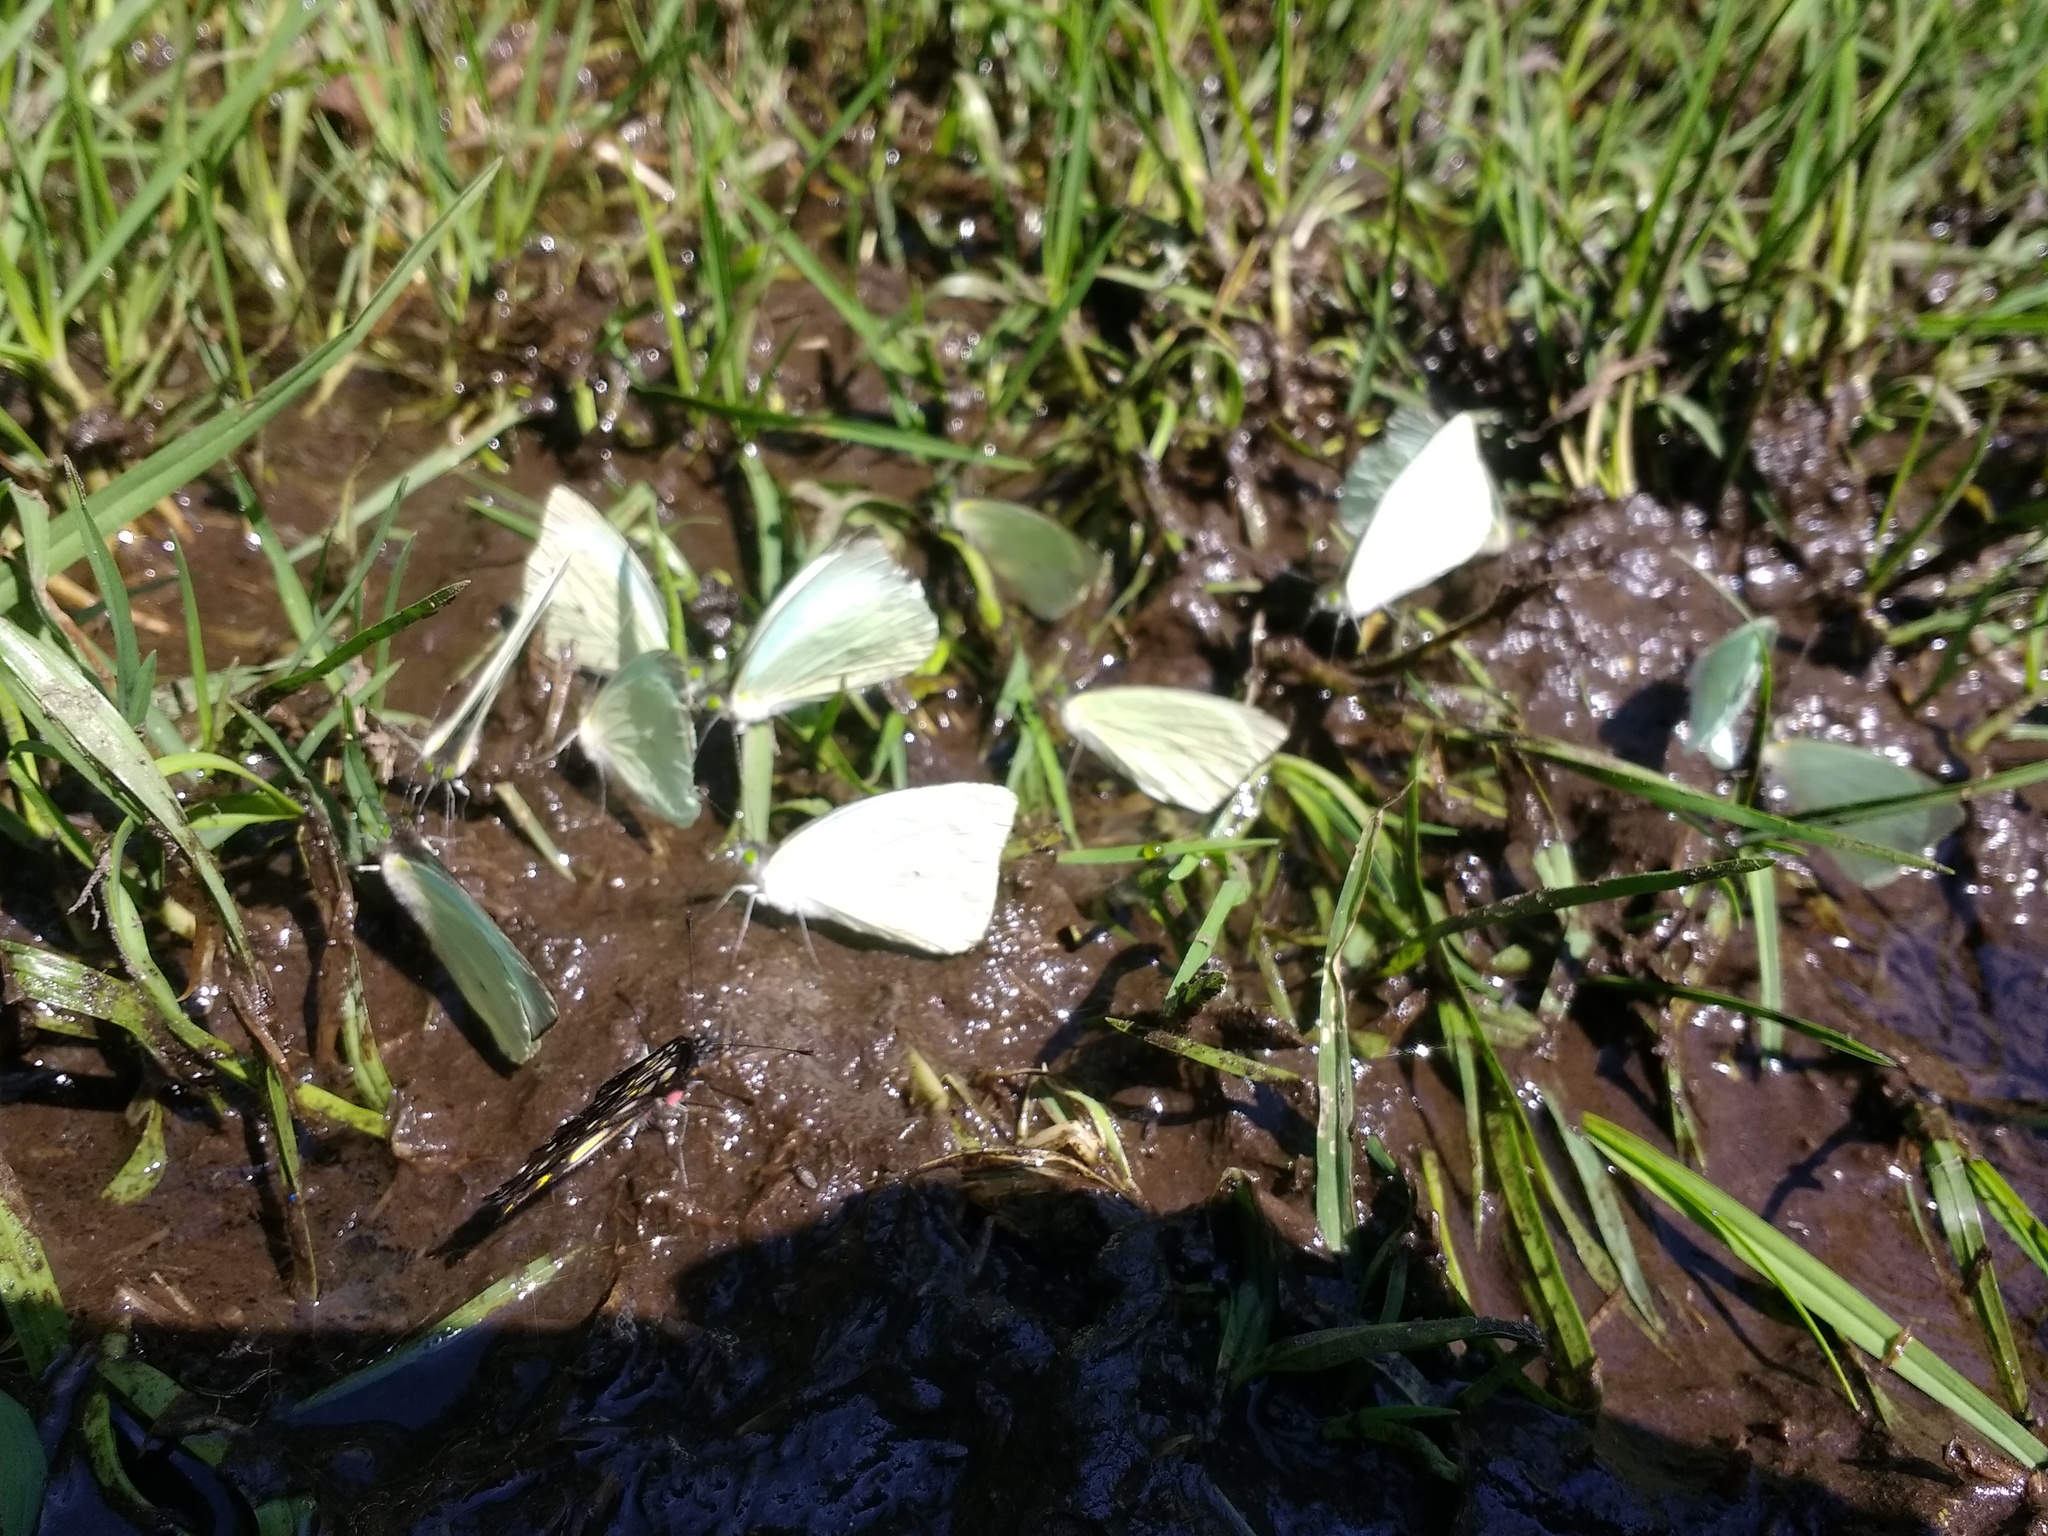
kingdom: Animalia
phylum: Arthropoda
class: Insecta
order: Lepidoptera
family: Pieridae
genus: Leptophobia
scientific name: Leptophobia aripa
